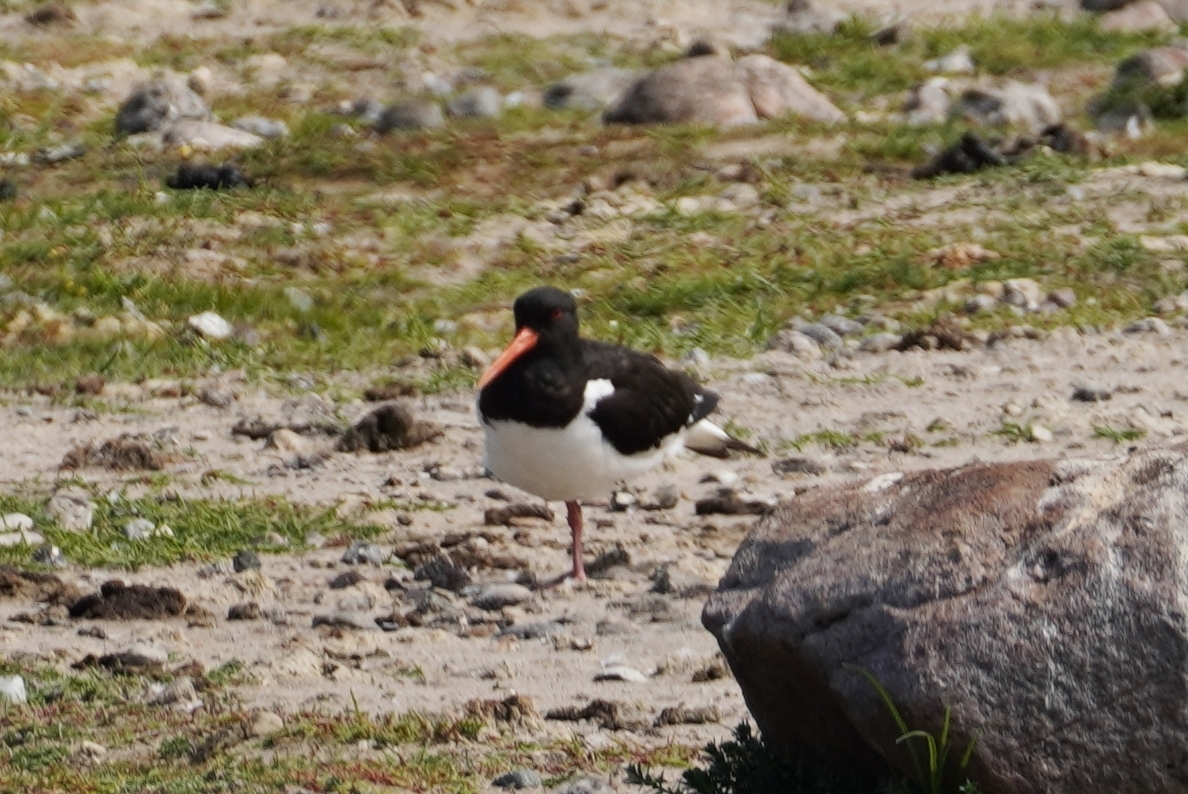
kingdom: Animalia
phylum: Chordata
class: Aves
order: Charadriiformes
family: Haematopodidae
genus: Haematopus
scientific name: Haematopus ostralegus
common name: Eurasian oystercatcher
